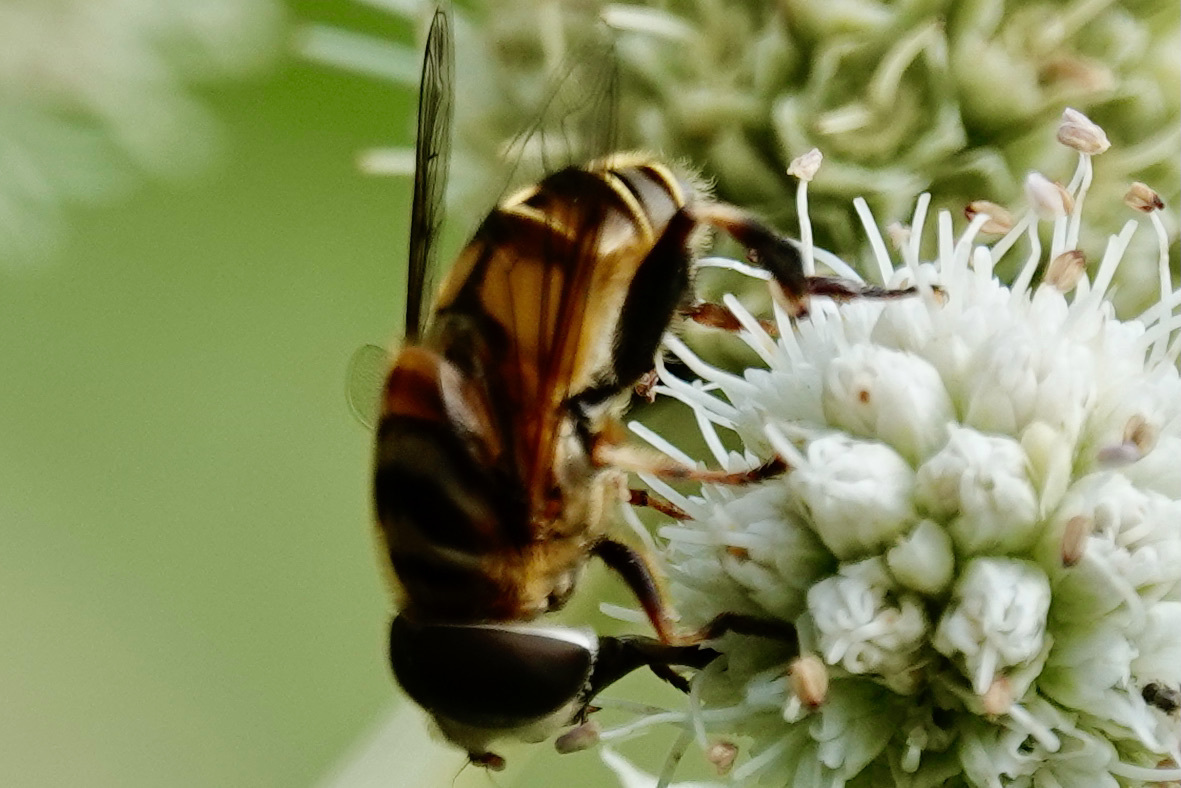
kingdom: Animalia
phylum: Arthropoda
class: Insecta
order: Diptera
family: Syrphidae
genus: Palpada
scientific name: Palpada vinetorum
